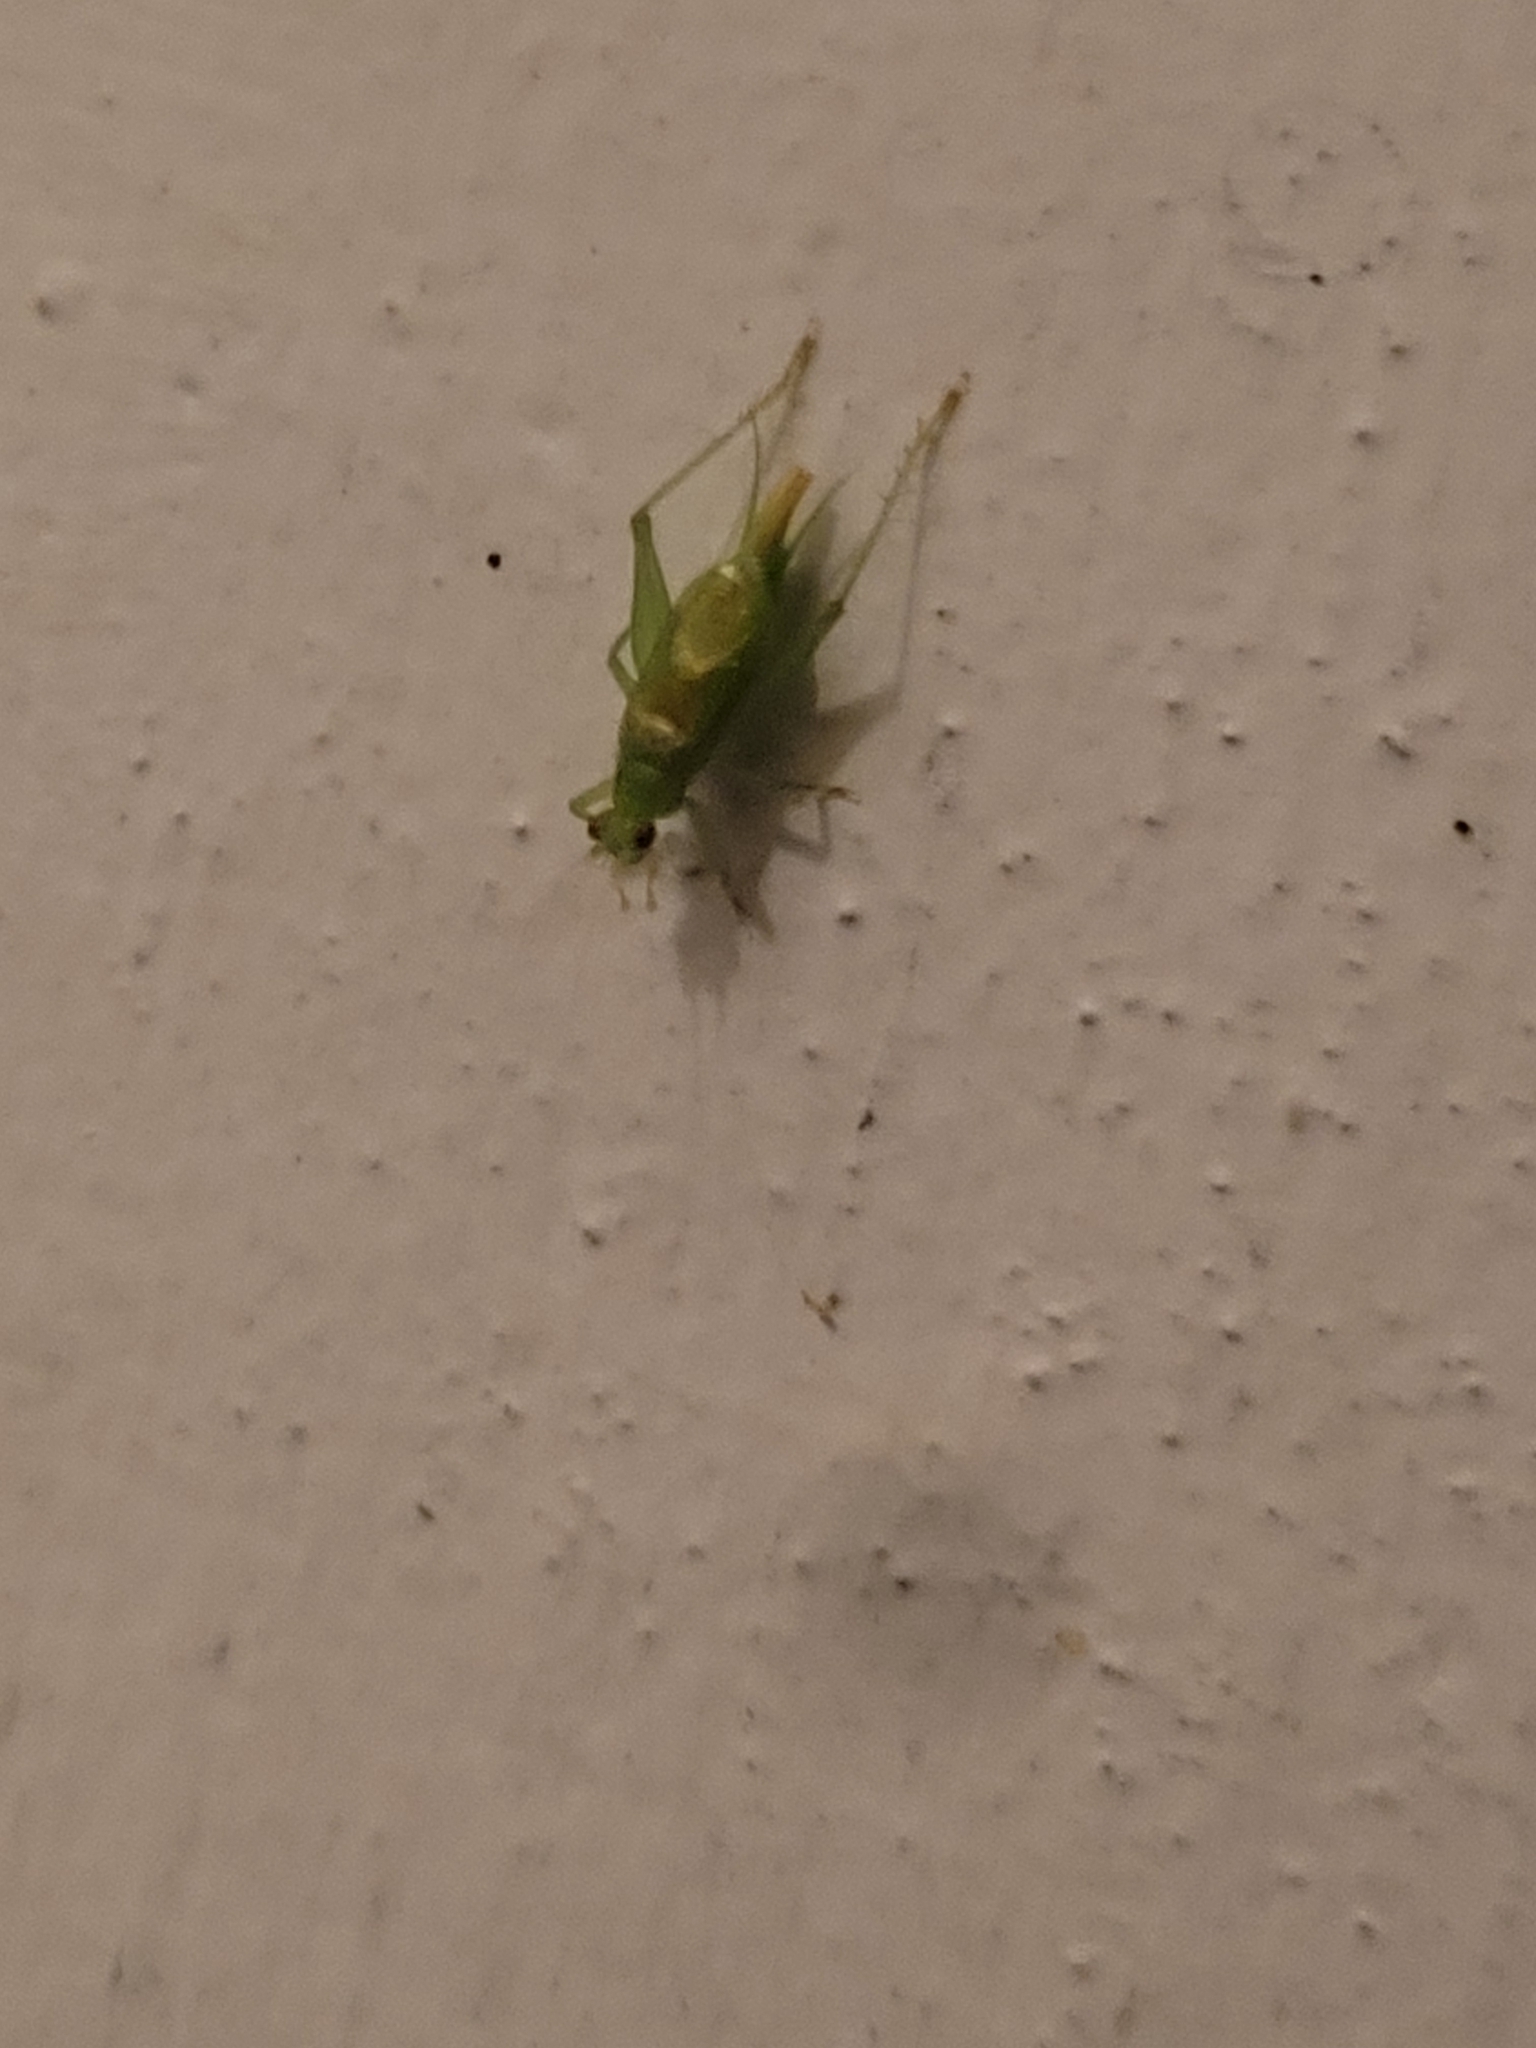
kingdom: Animalia
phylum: Arthropoda
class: Insecta
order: Orthoptera
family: Trigonidiidae
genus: Cyrtoxipha
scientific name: Cyrtoxipha columbiana
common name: Columbian trig
